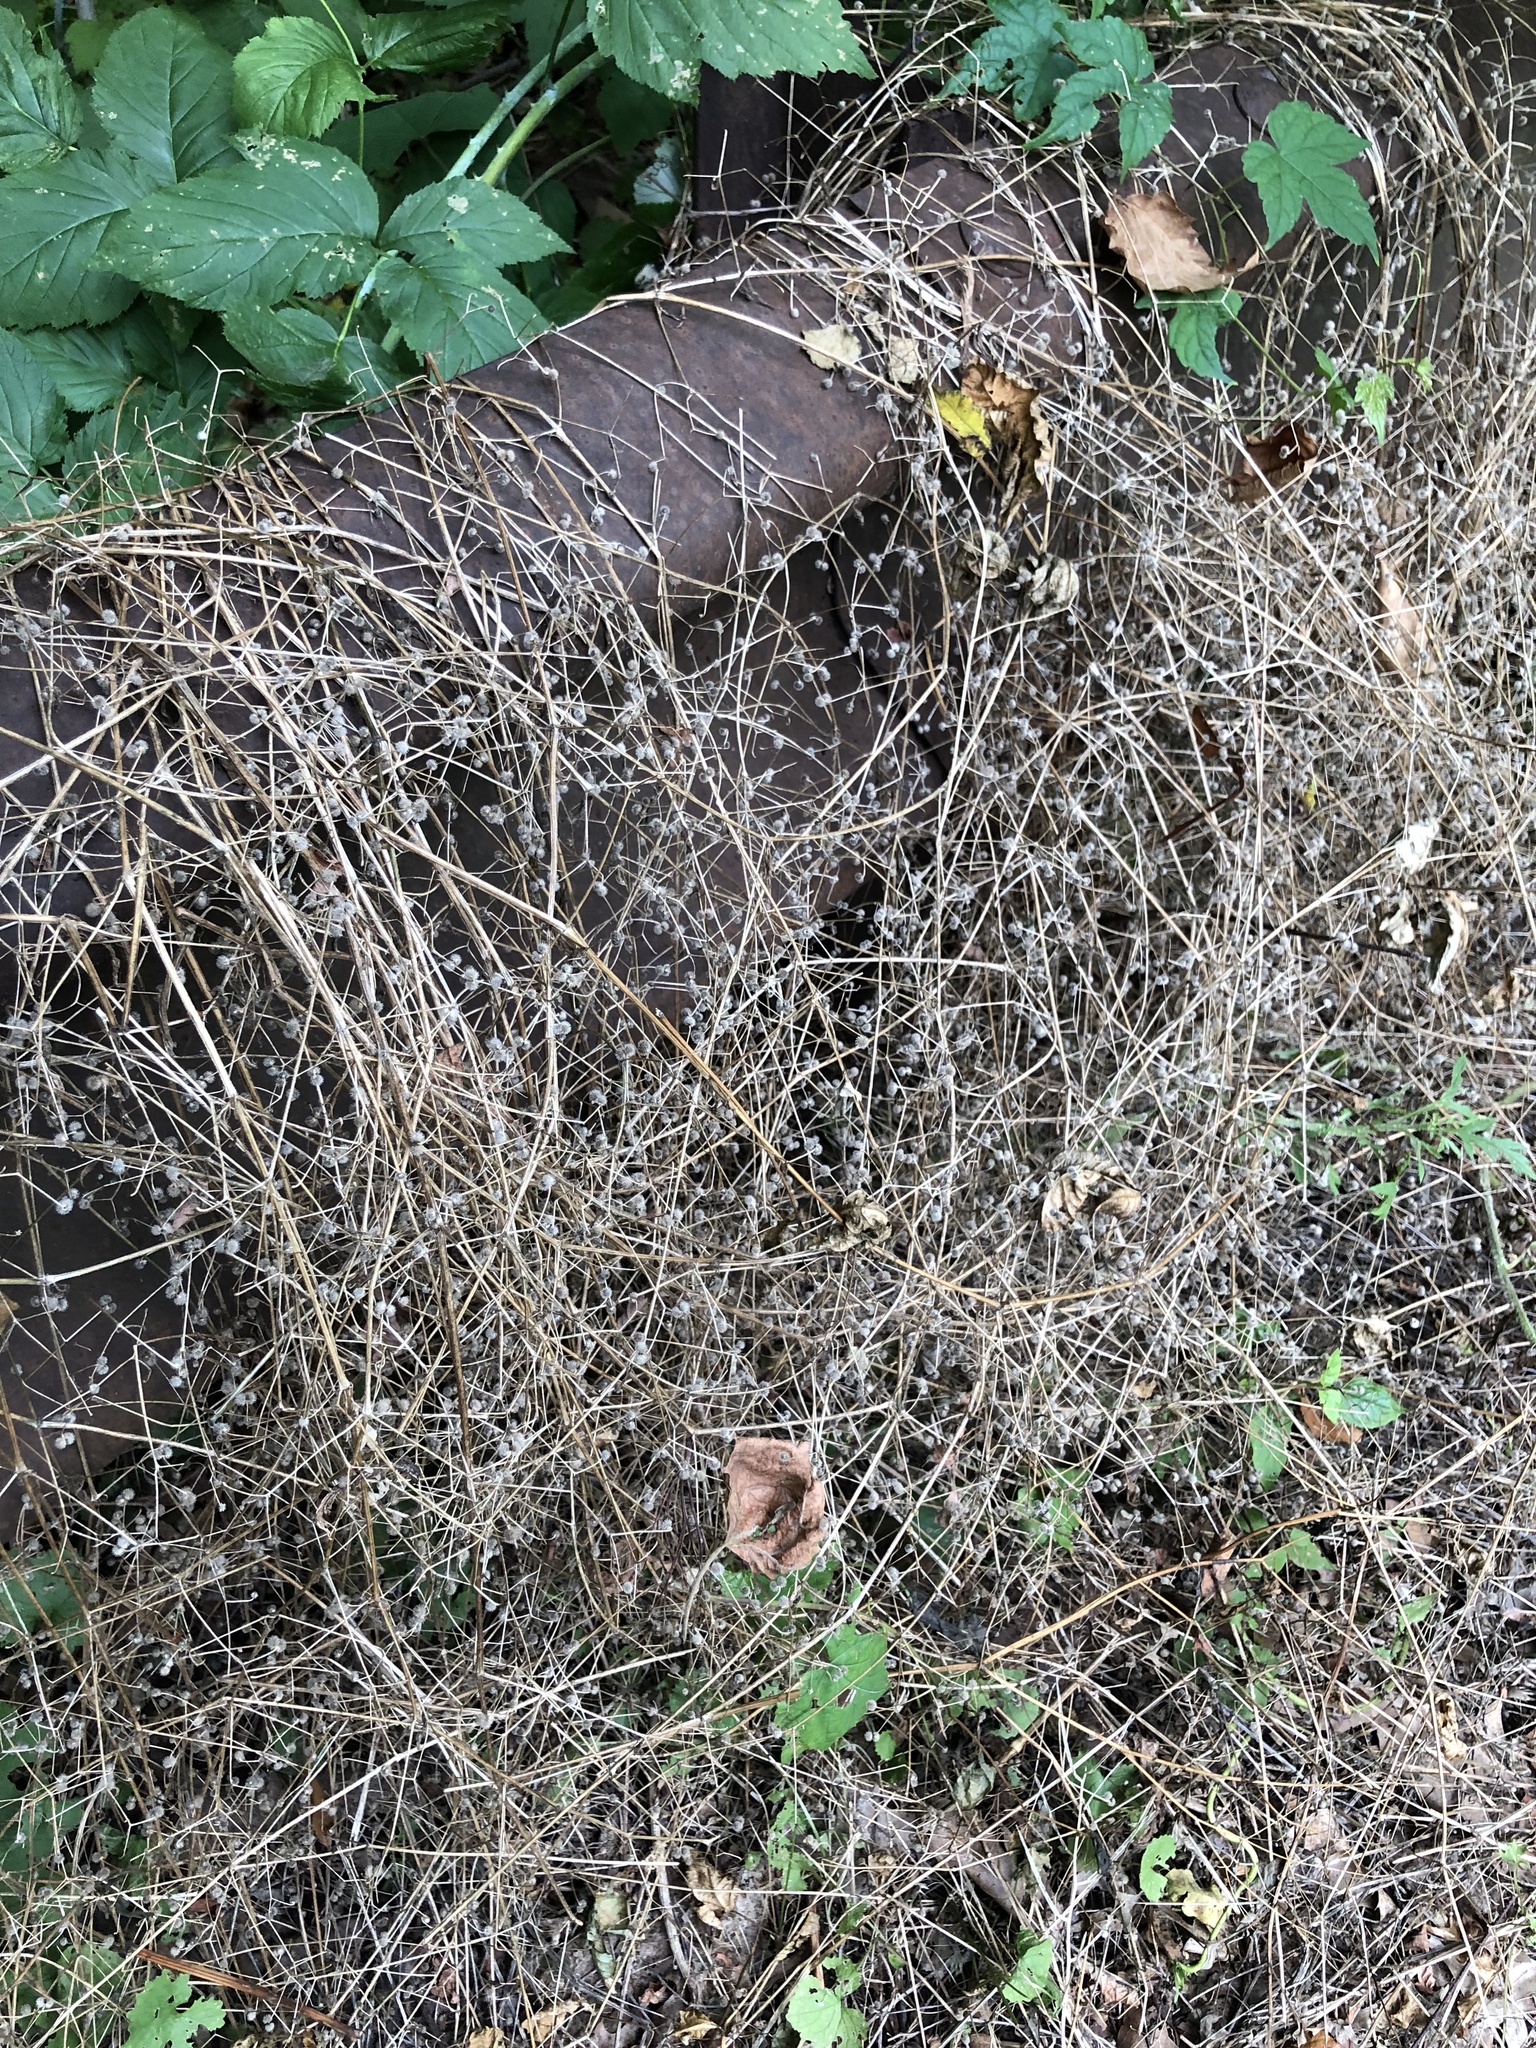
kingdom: Plantae
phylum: Tracheophyta
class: Magnoliopsida
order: Boraginales
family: Boraginaceae
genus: Hackelia
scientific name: Hackelia virginiana
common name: Beggar's-lice
